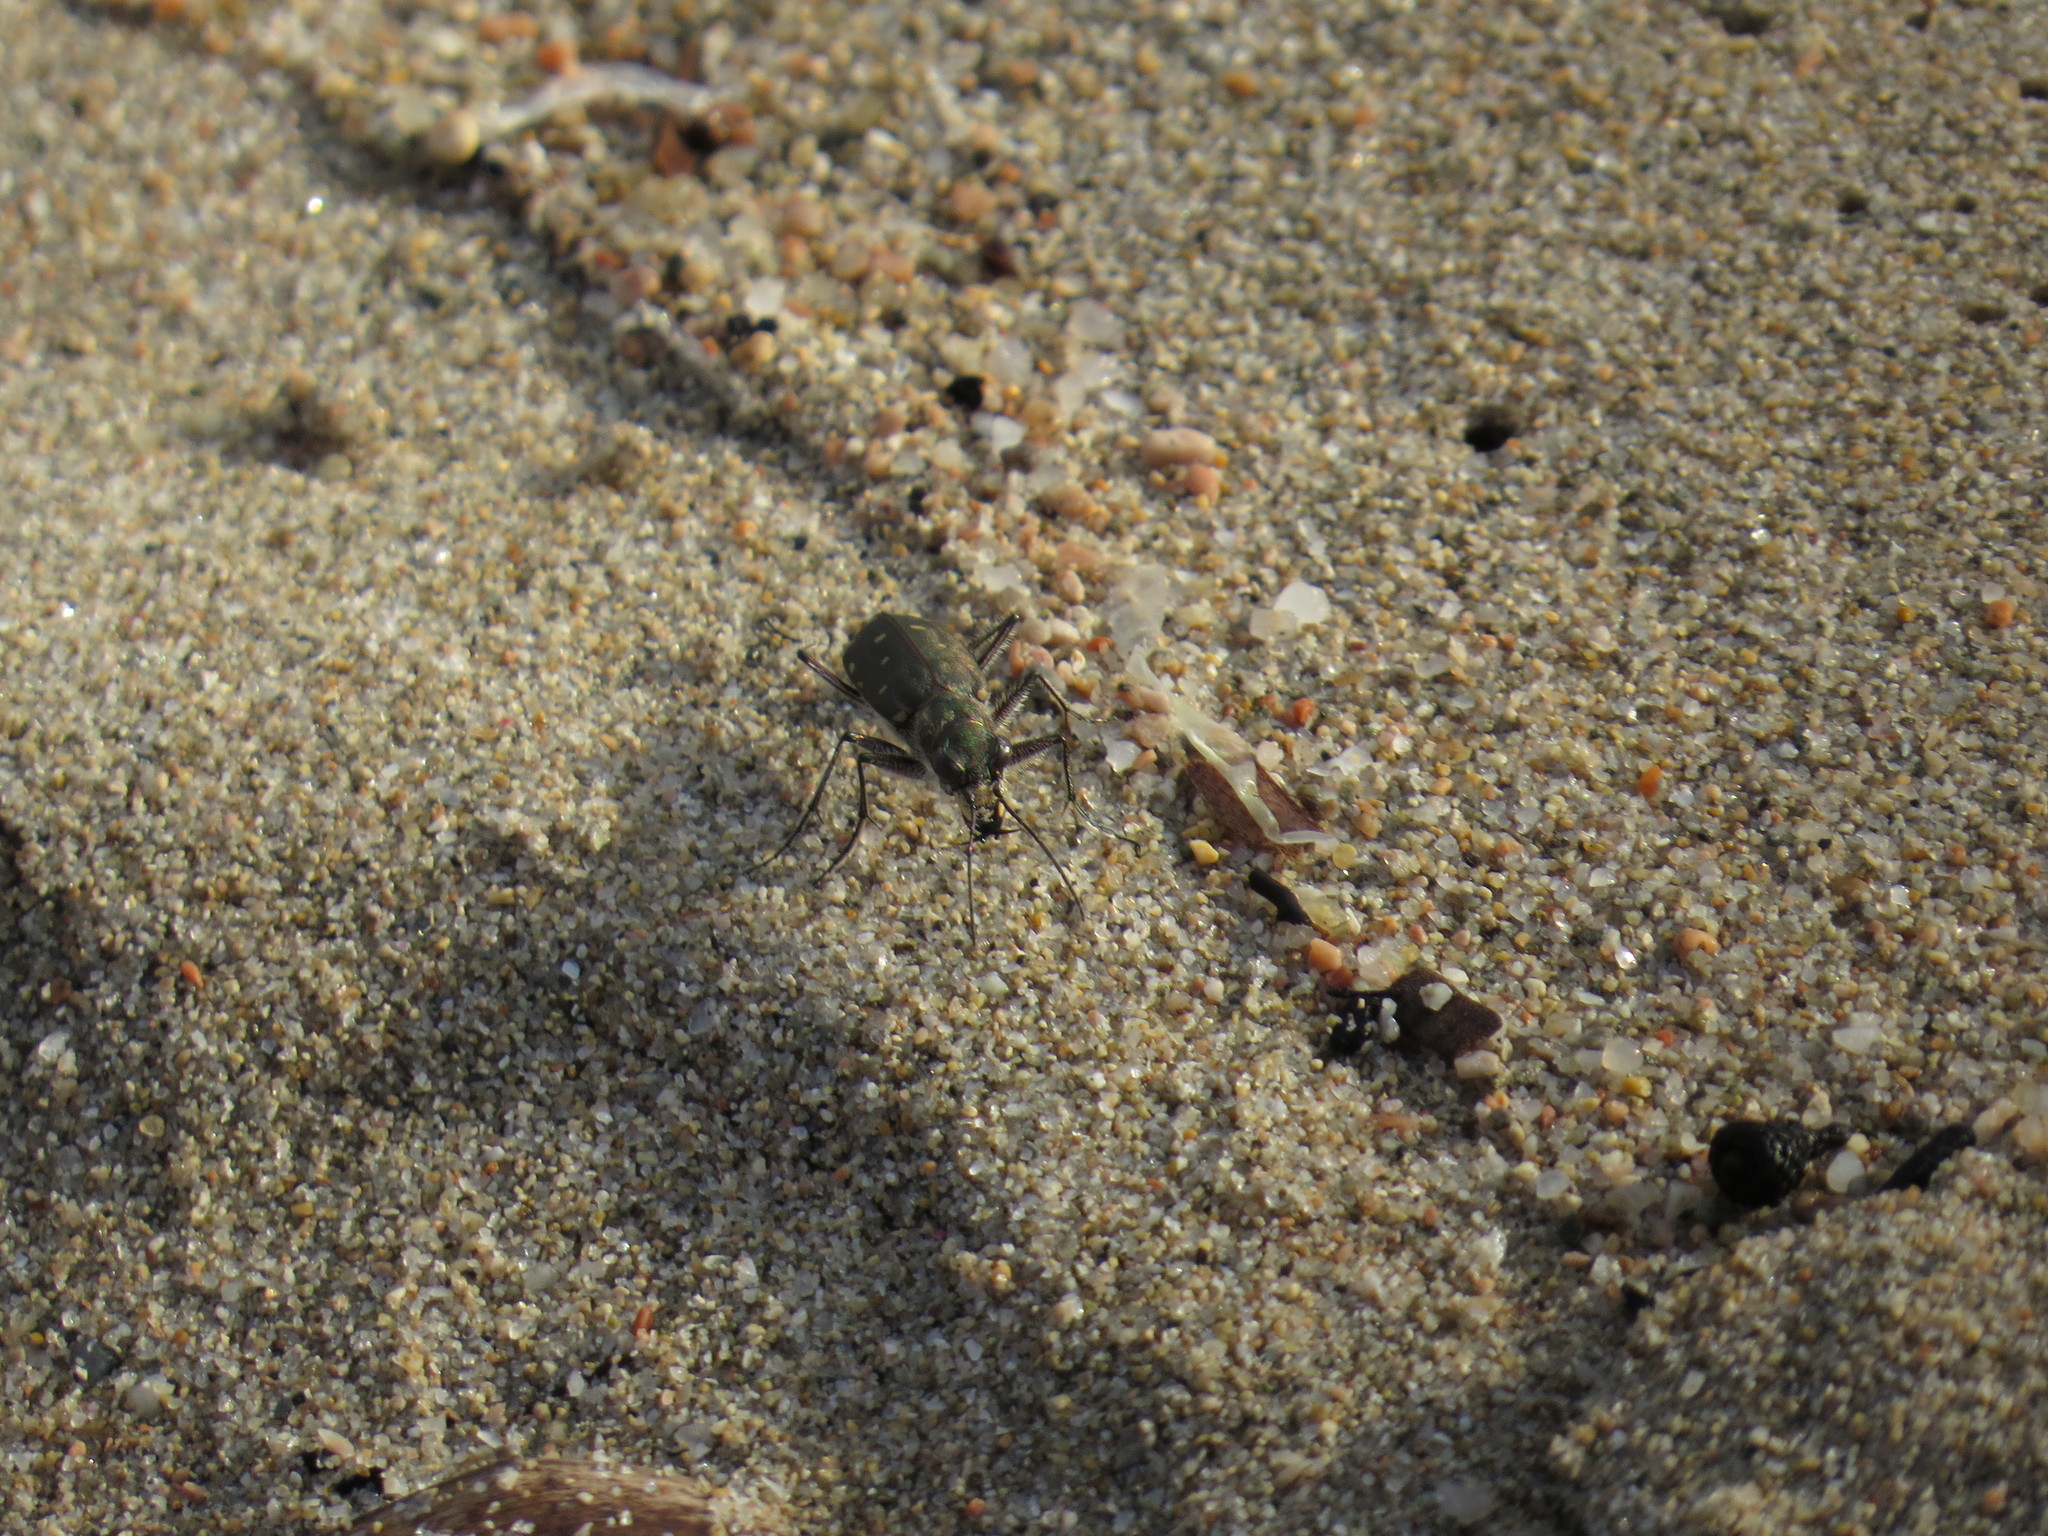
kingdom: Animalia
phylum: Arthropoda
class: Insecta
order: Coleoptera
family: Carabidae
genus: Cicindela
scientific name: Cicindela littoralis
